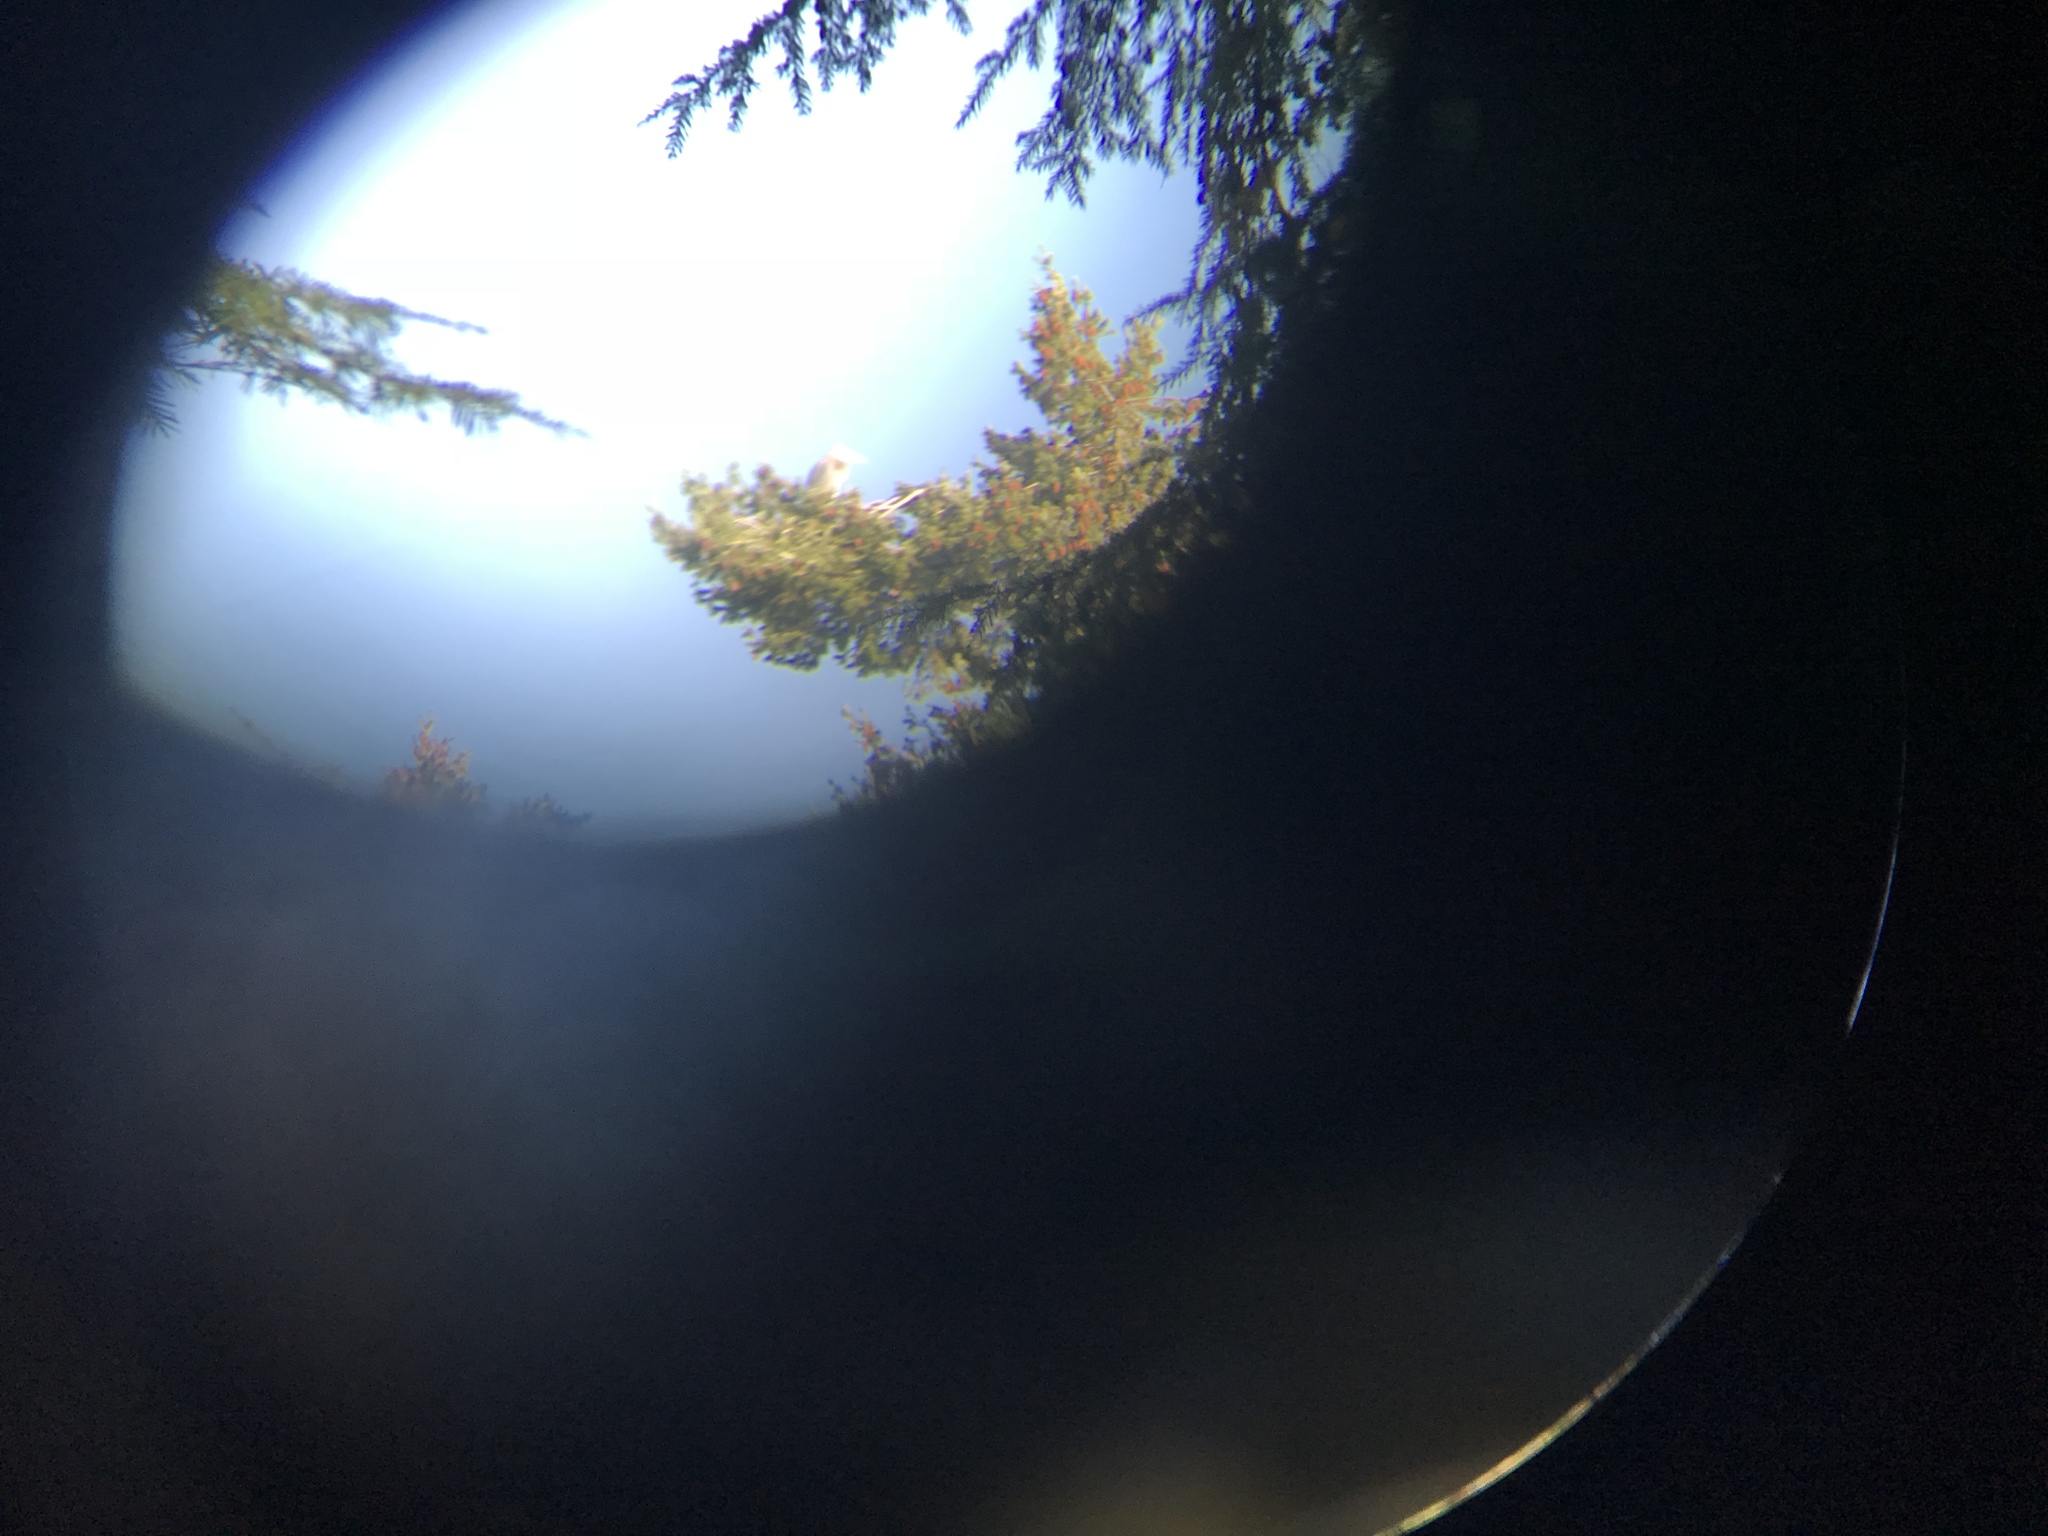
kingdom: Animalia
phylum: Chordata
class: Aves
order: Pelecaniformes
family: Ardeidae
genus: Ardea
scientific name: Ardea herodias
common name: Great blue heron
